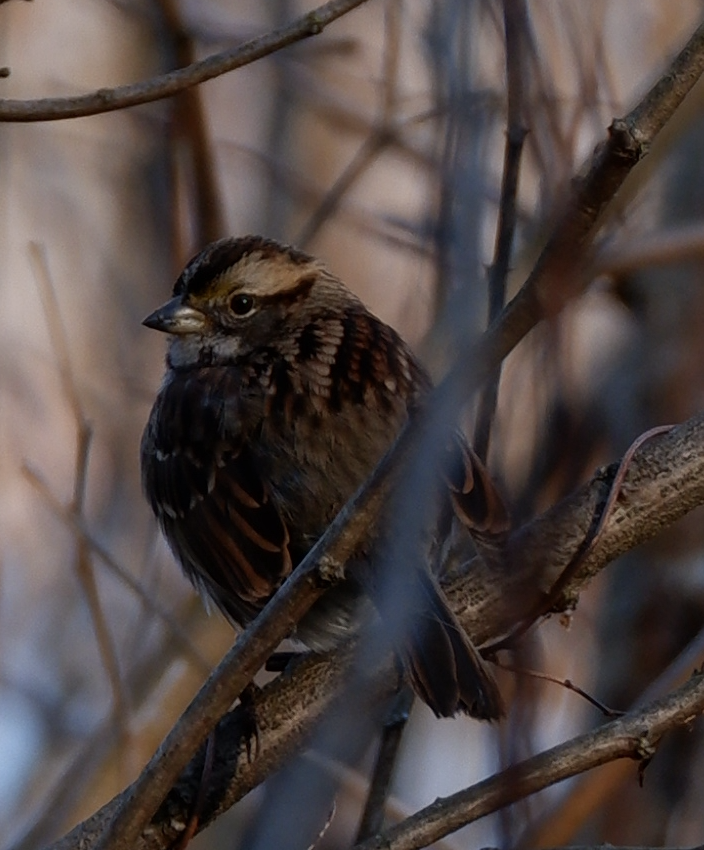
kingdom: Animalia
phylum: Chordata
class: Aves
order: Passeriformes
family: Passerellidae
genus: Zonotrichia
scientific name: Zonotrichia albicollis
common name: White-throated sparrow
